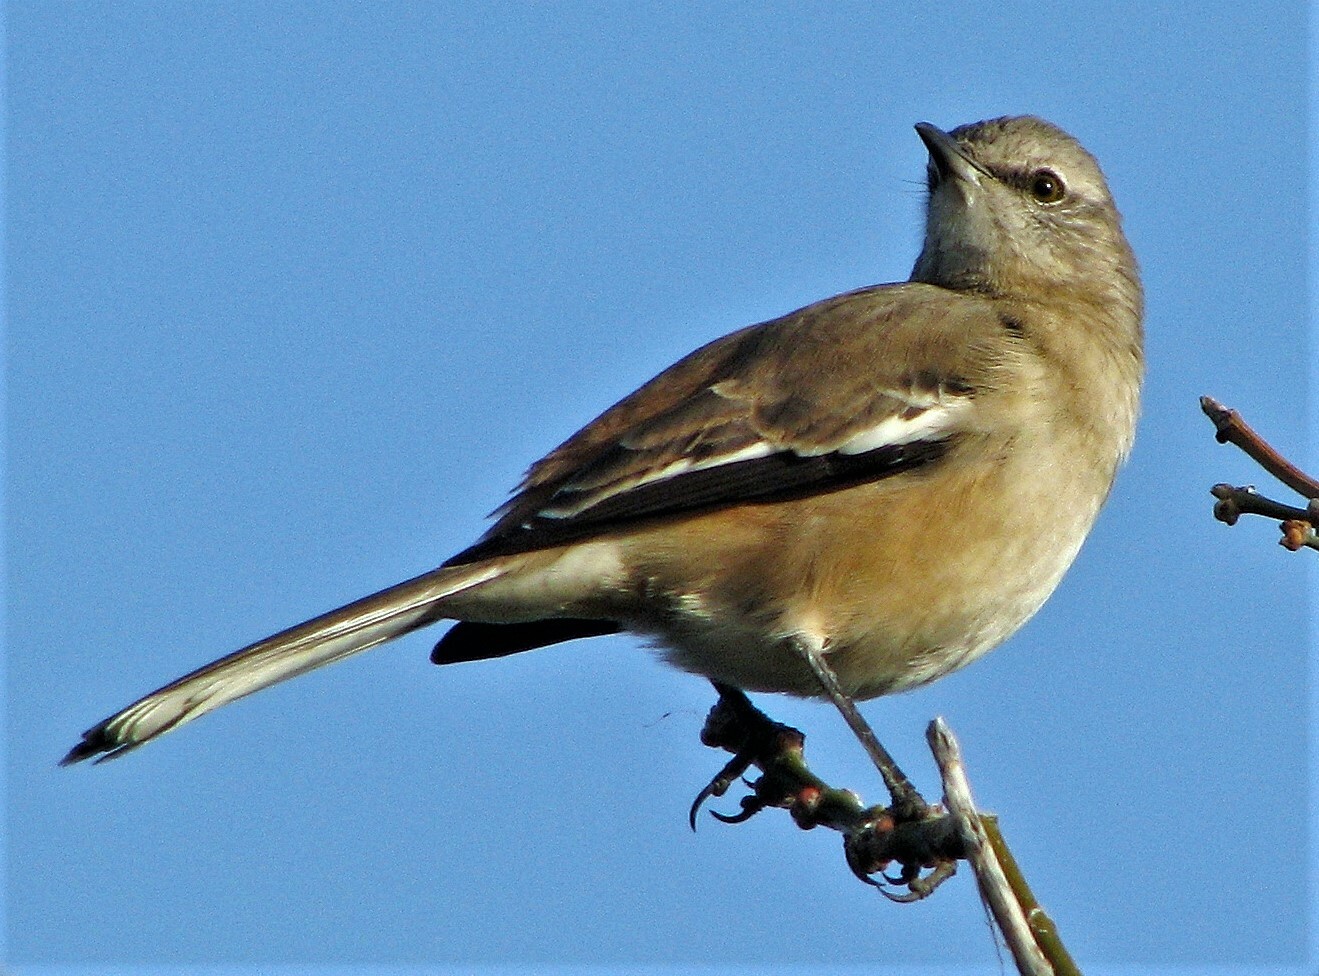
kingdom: Animalia
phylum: Chordata
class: Aves
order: Passeriformes
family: Mimidae
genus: Mimus
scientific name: Mimus triurus
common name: White-banded mockingbird
